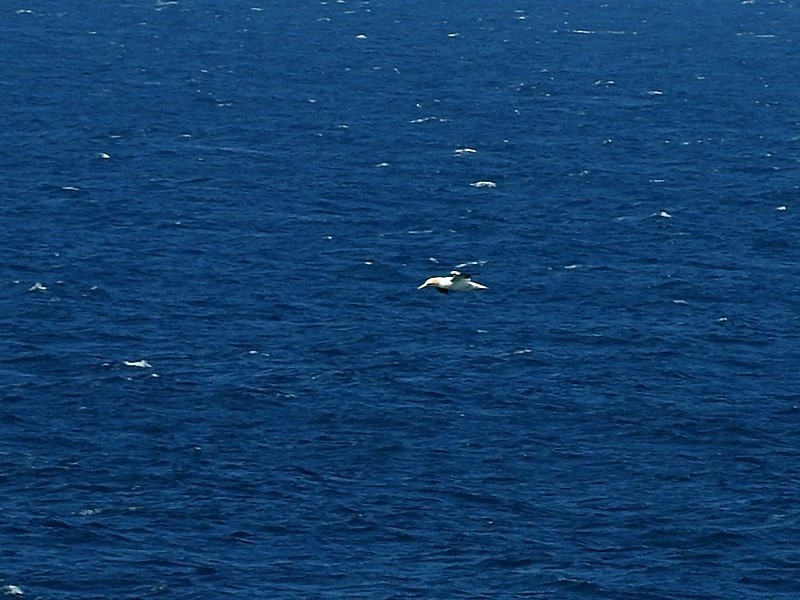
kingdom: Animalia
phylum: Chordata
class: Aves
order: Suliformes
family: Sulidae
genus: Morus
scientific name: Morus serrator
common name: Australasian gannet
